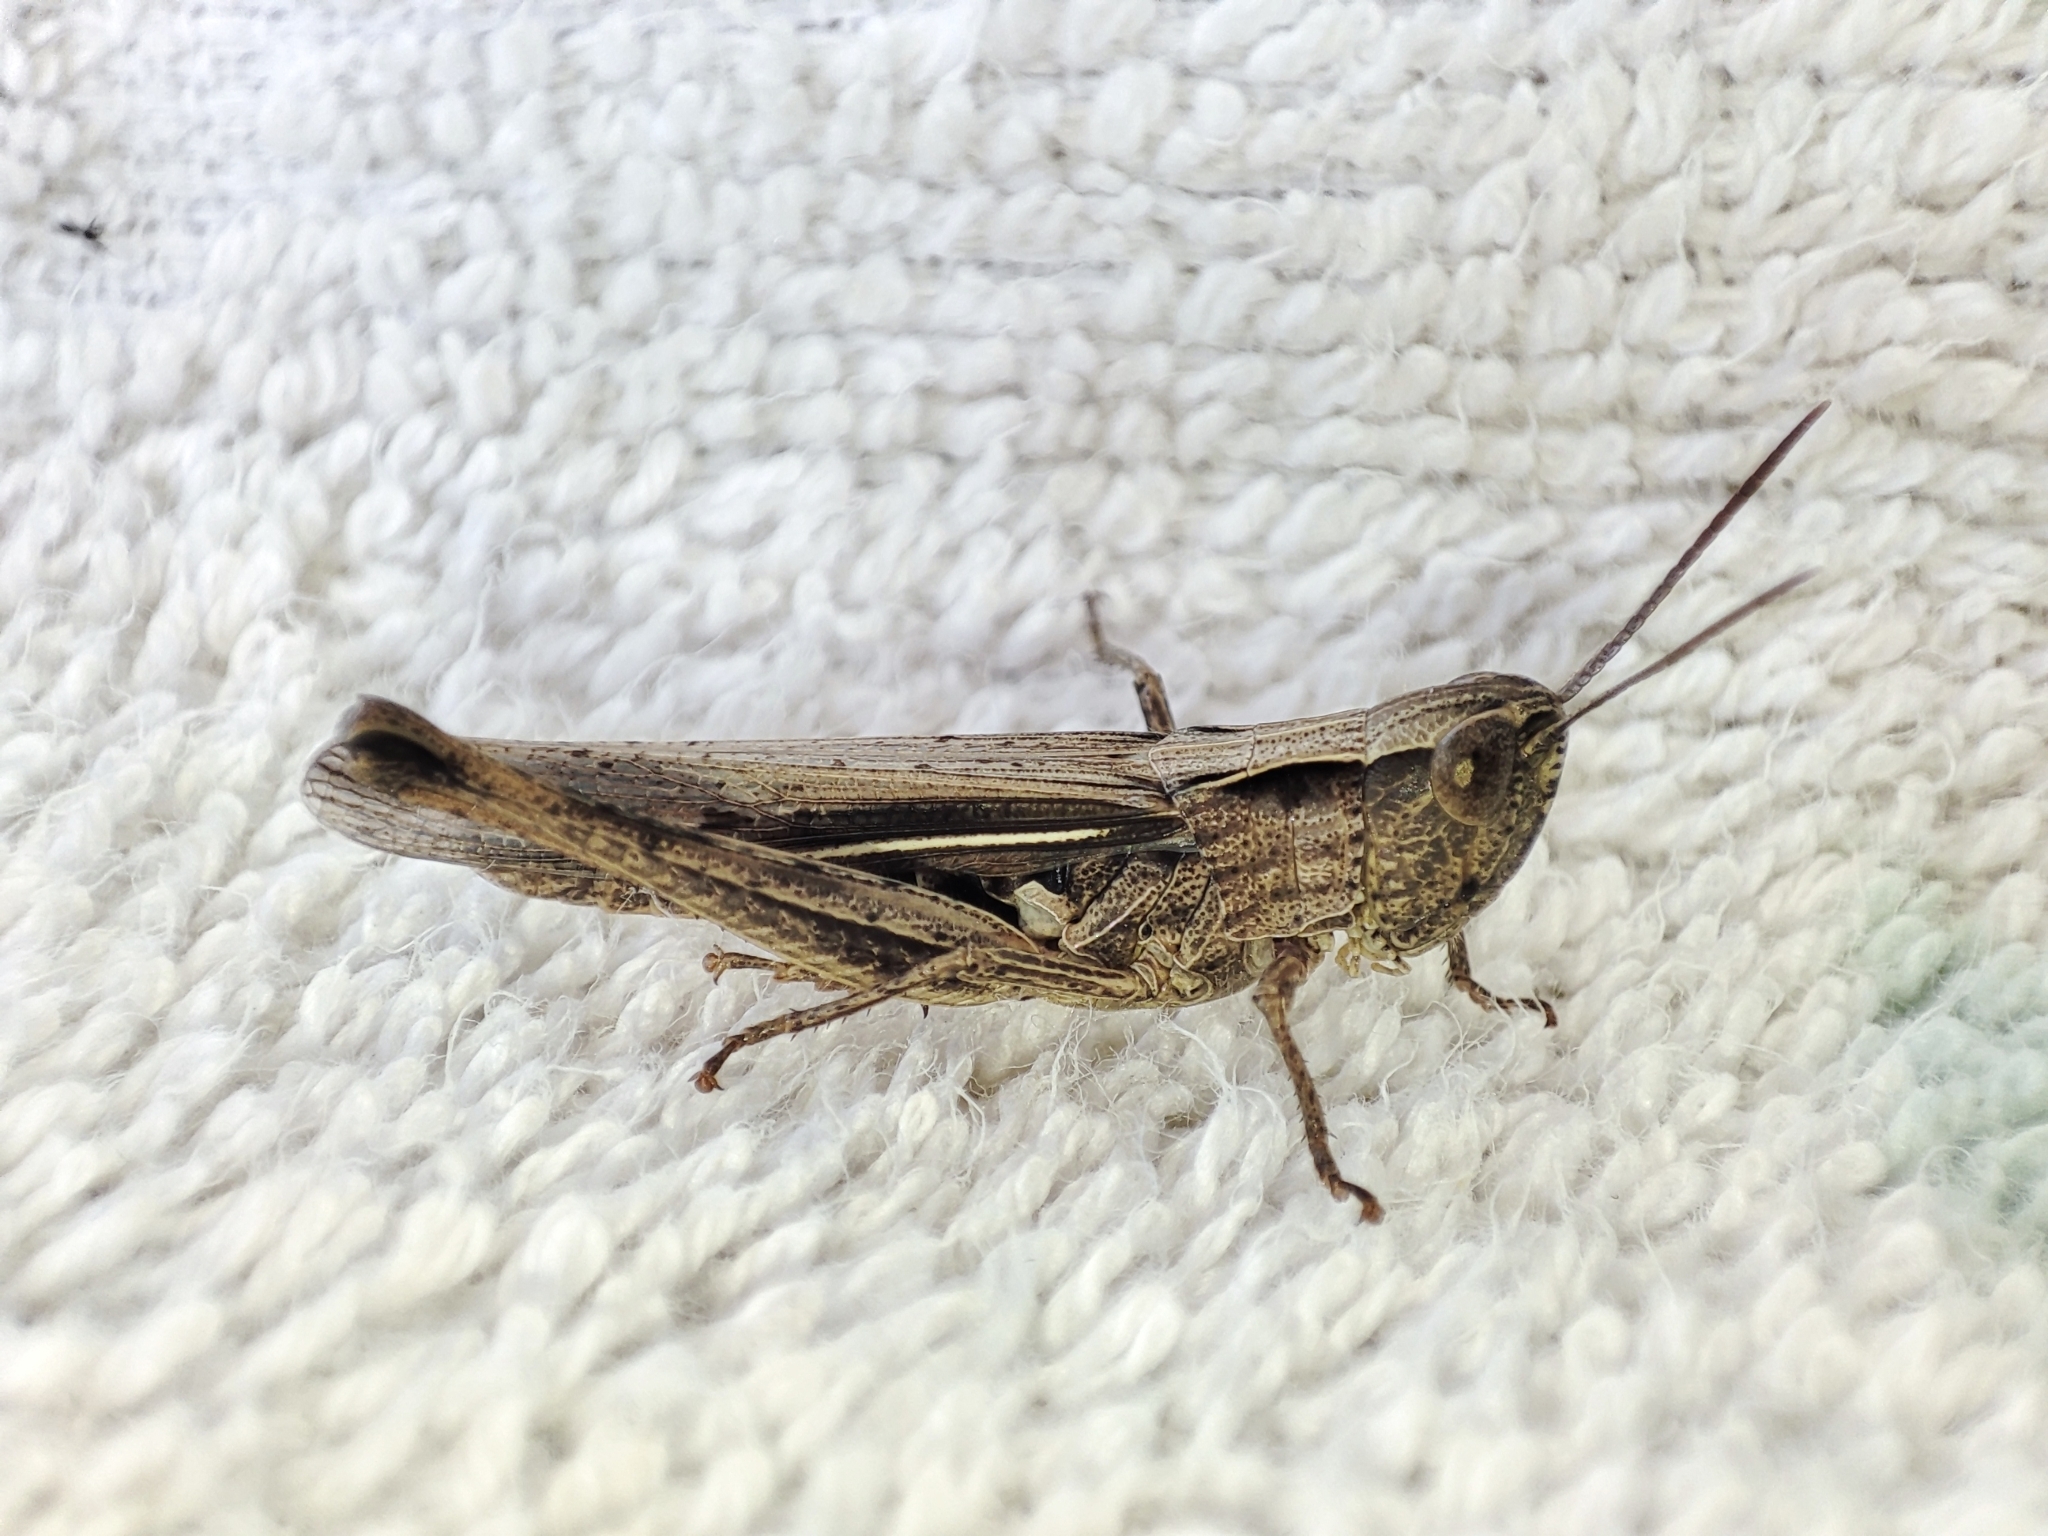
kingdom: Animalia
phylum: Arthropoda
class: Insecta
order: Orthoptera
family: Acrididae
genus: Chorthippus
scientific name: Chorthippus loratus
